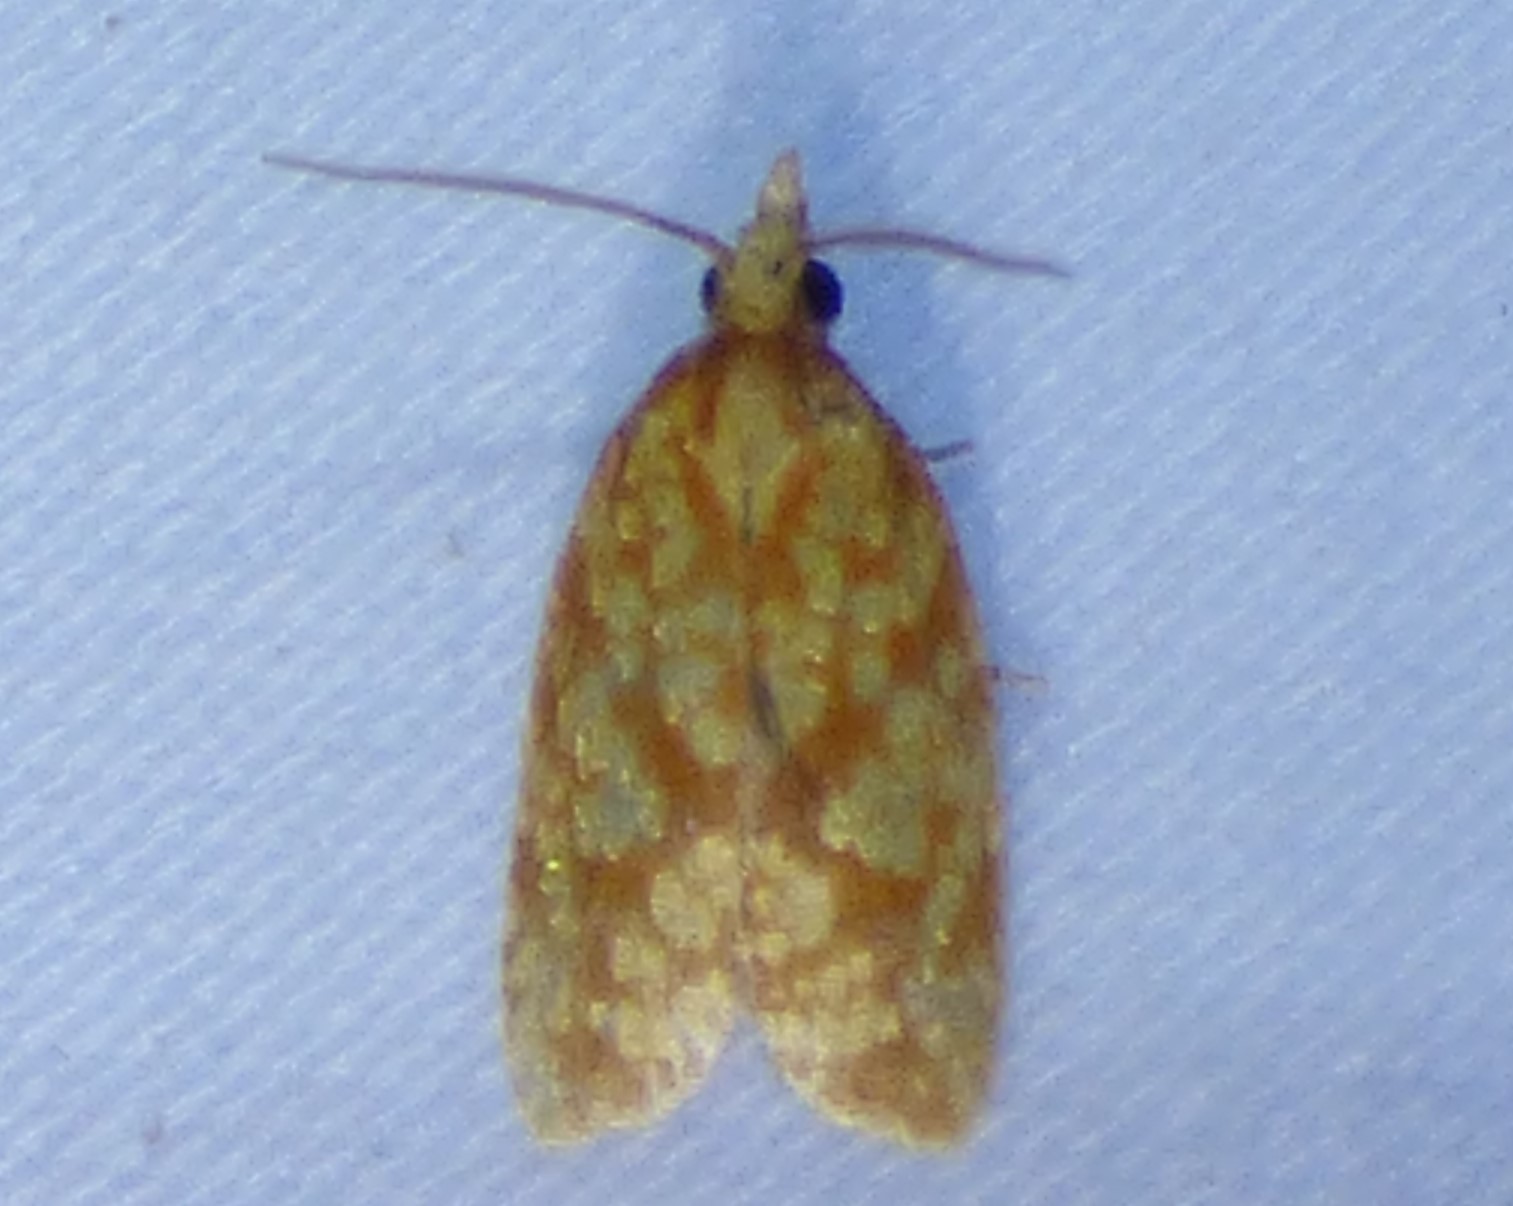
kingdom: Animalia
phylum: Arthropoda
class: Insecta
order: Lepidoptera
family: Tortricidae
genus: Sparganothis
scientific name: Sparganothis sulfureana
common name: Sparganothis fruitworm moth
